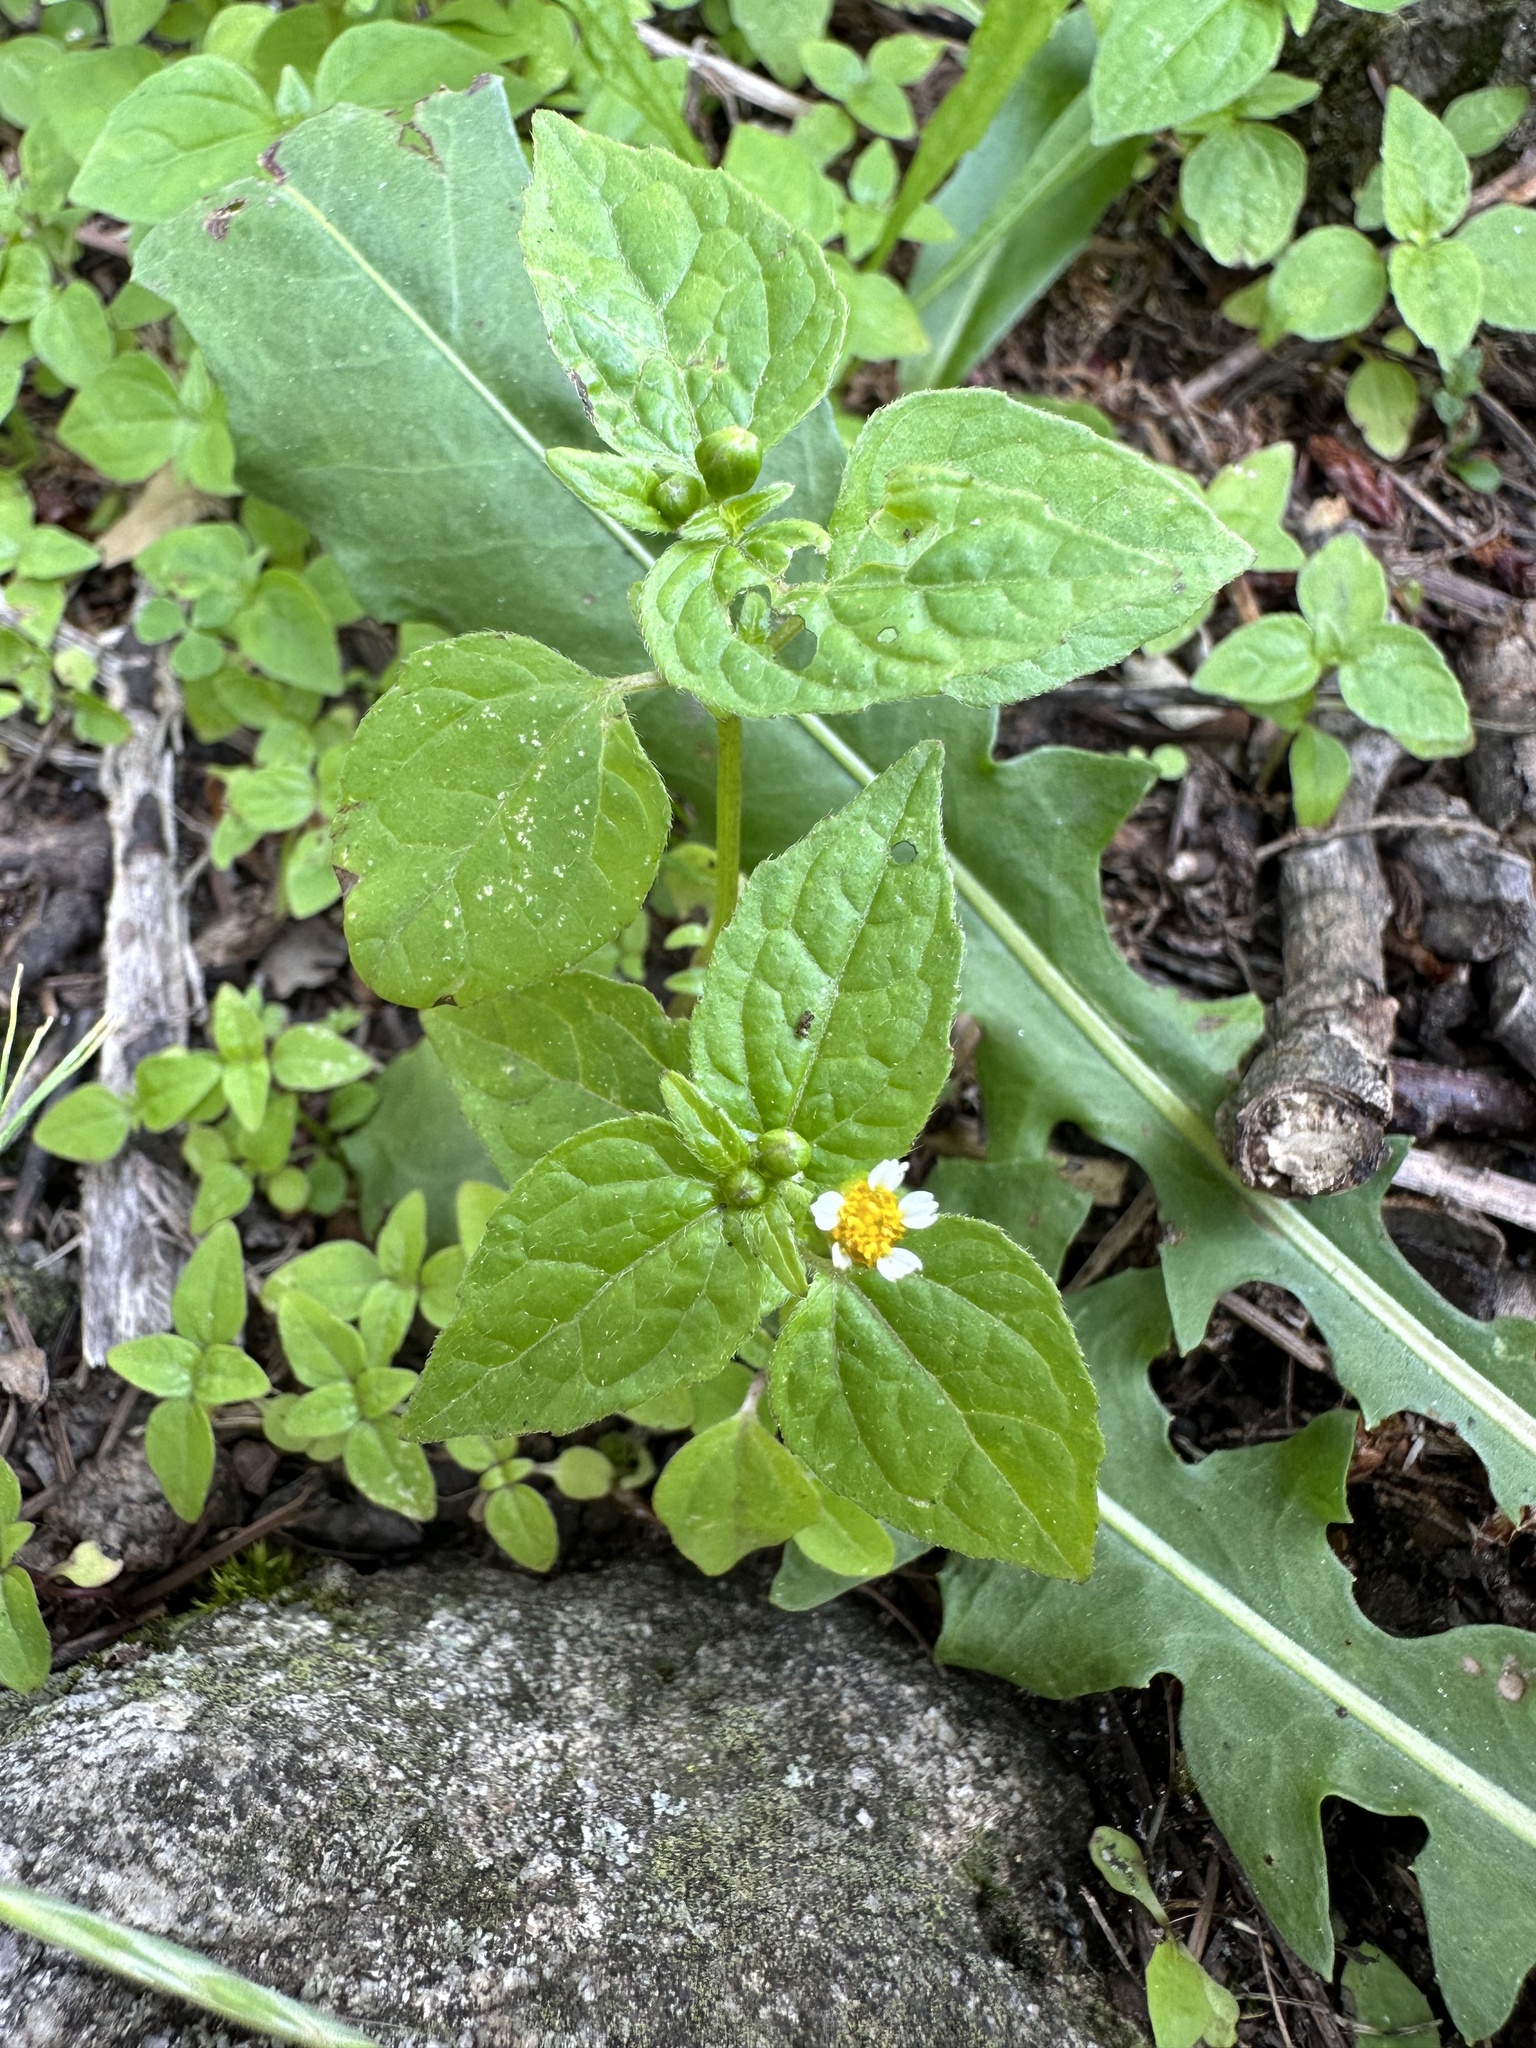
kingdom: Plantae
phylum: Tracheophyta
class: Magnoliopsida
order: Asterales
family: Asteraceae
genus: Galinsoga
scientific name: Galinsoga quadriradiata
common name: Shaggy soldier
